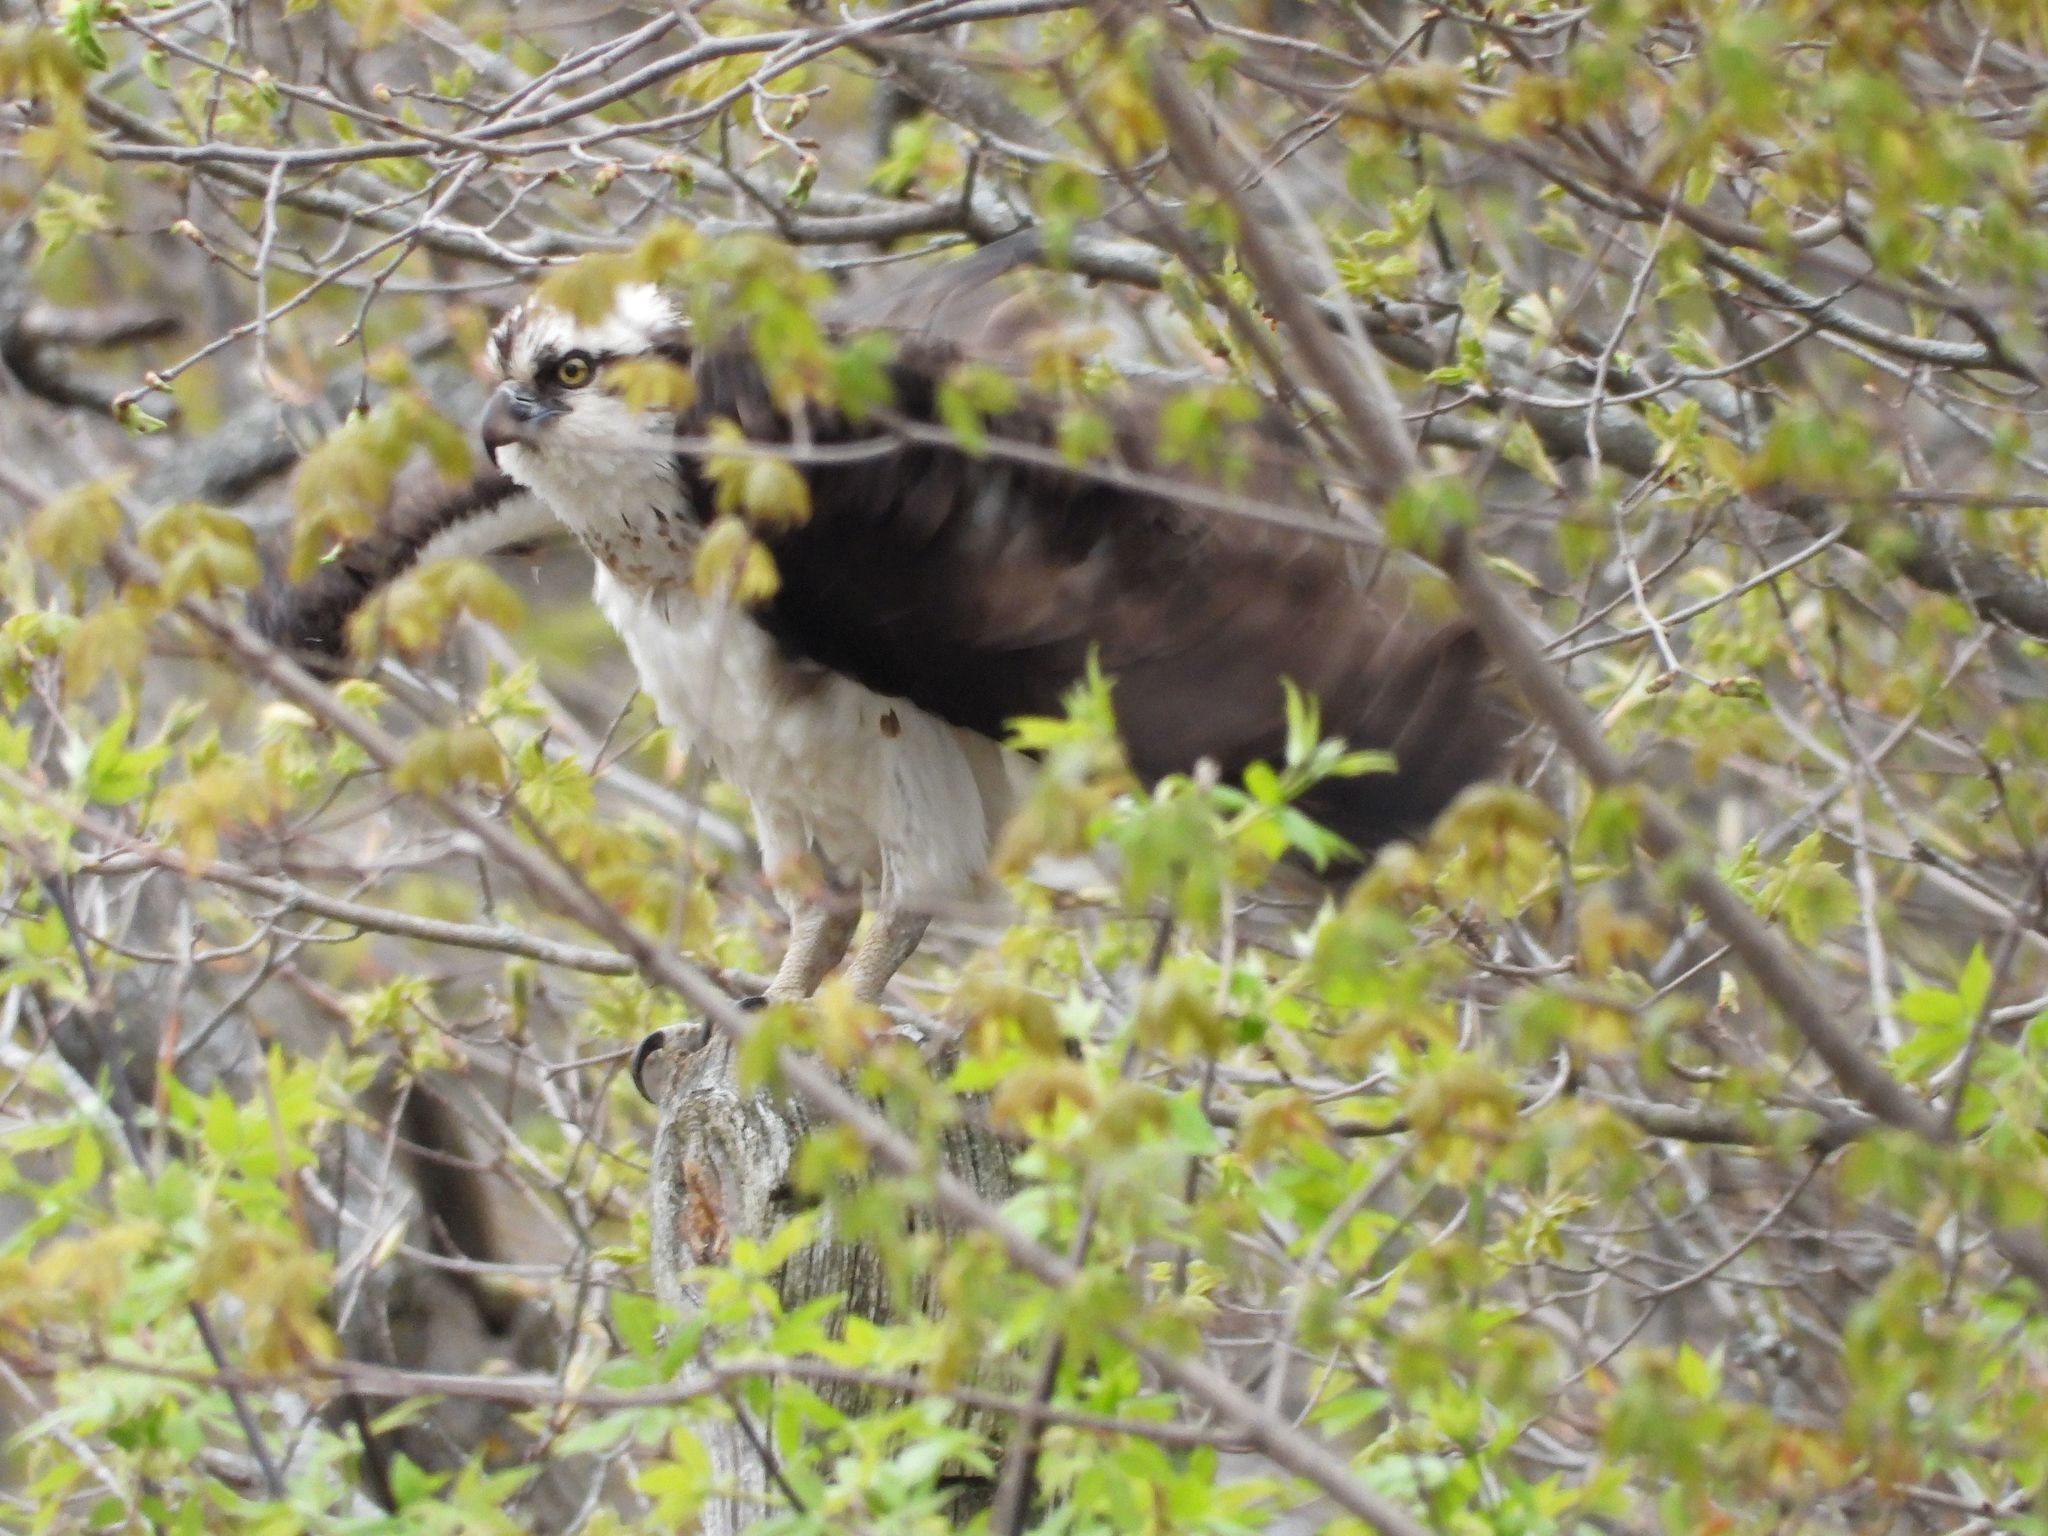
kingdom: Animalia
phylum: Chordata
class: Aves
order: Accipitriformes
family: Pandionidae
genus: Pandion
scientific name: Pandion haliaetus
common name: Osprey
